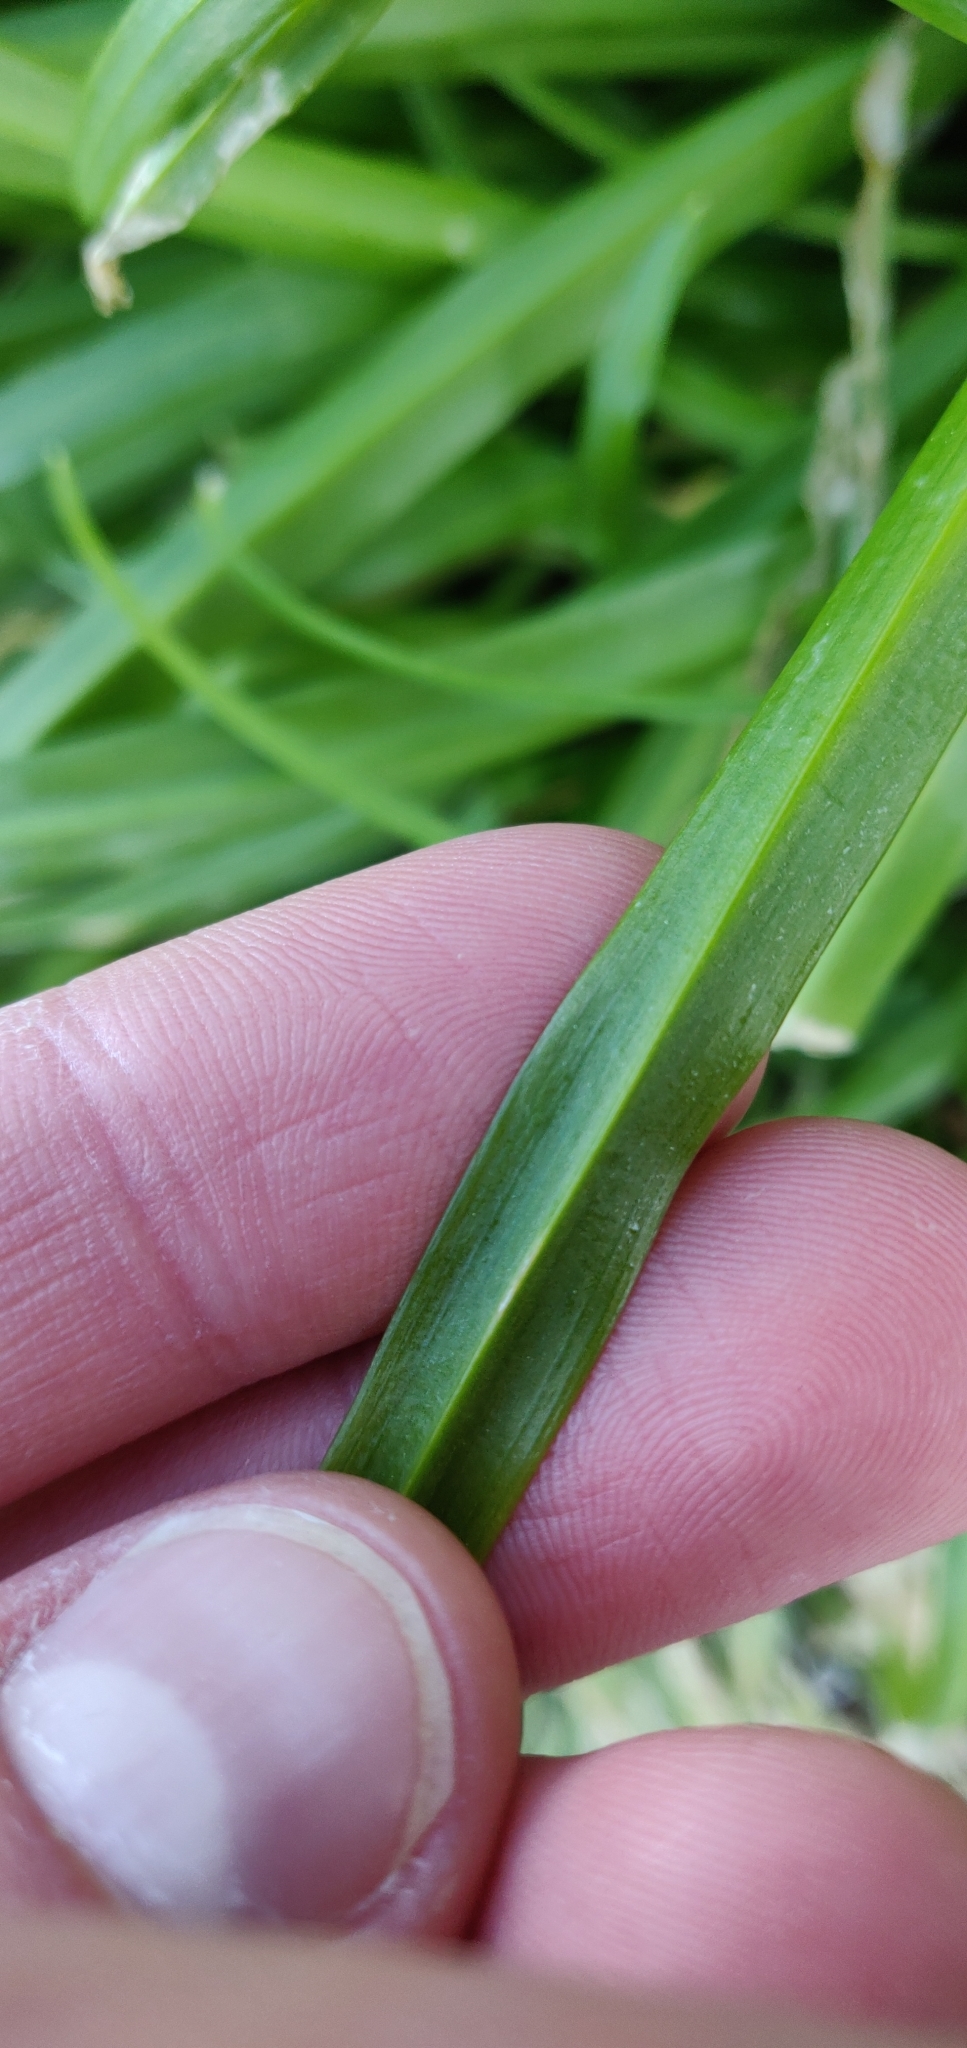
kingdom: Plantae
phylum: Tracheophyta
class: Liliopsida
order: Asparagales
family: Amaryllidaceae
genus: Allium
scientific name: Allium triquetrum
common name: Three-cornered garlic
